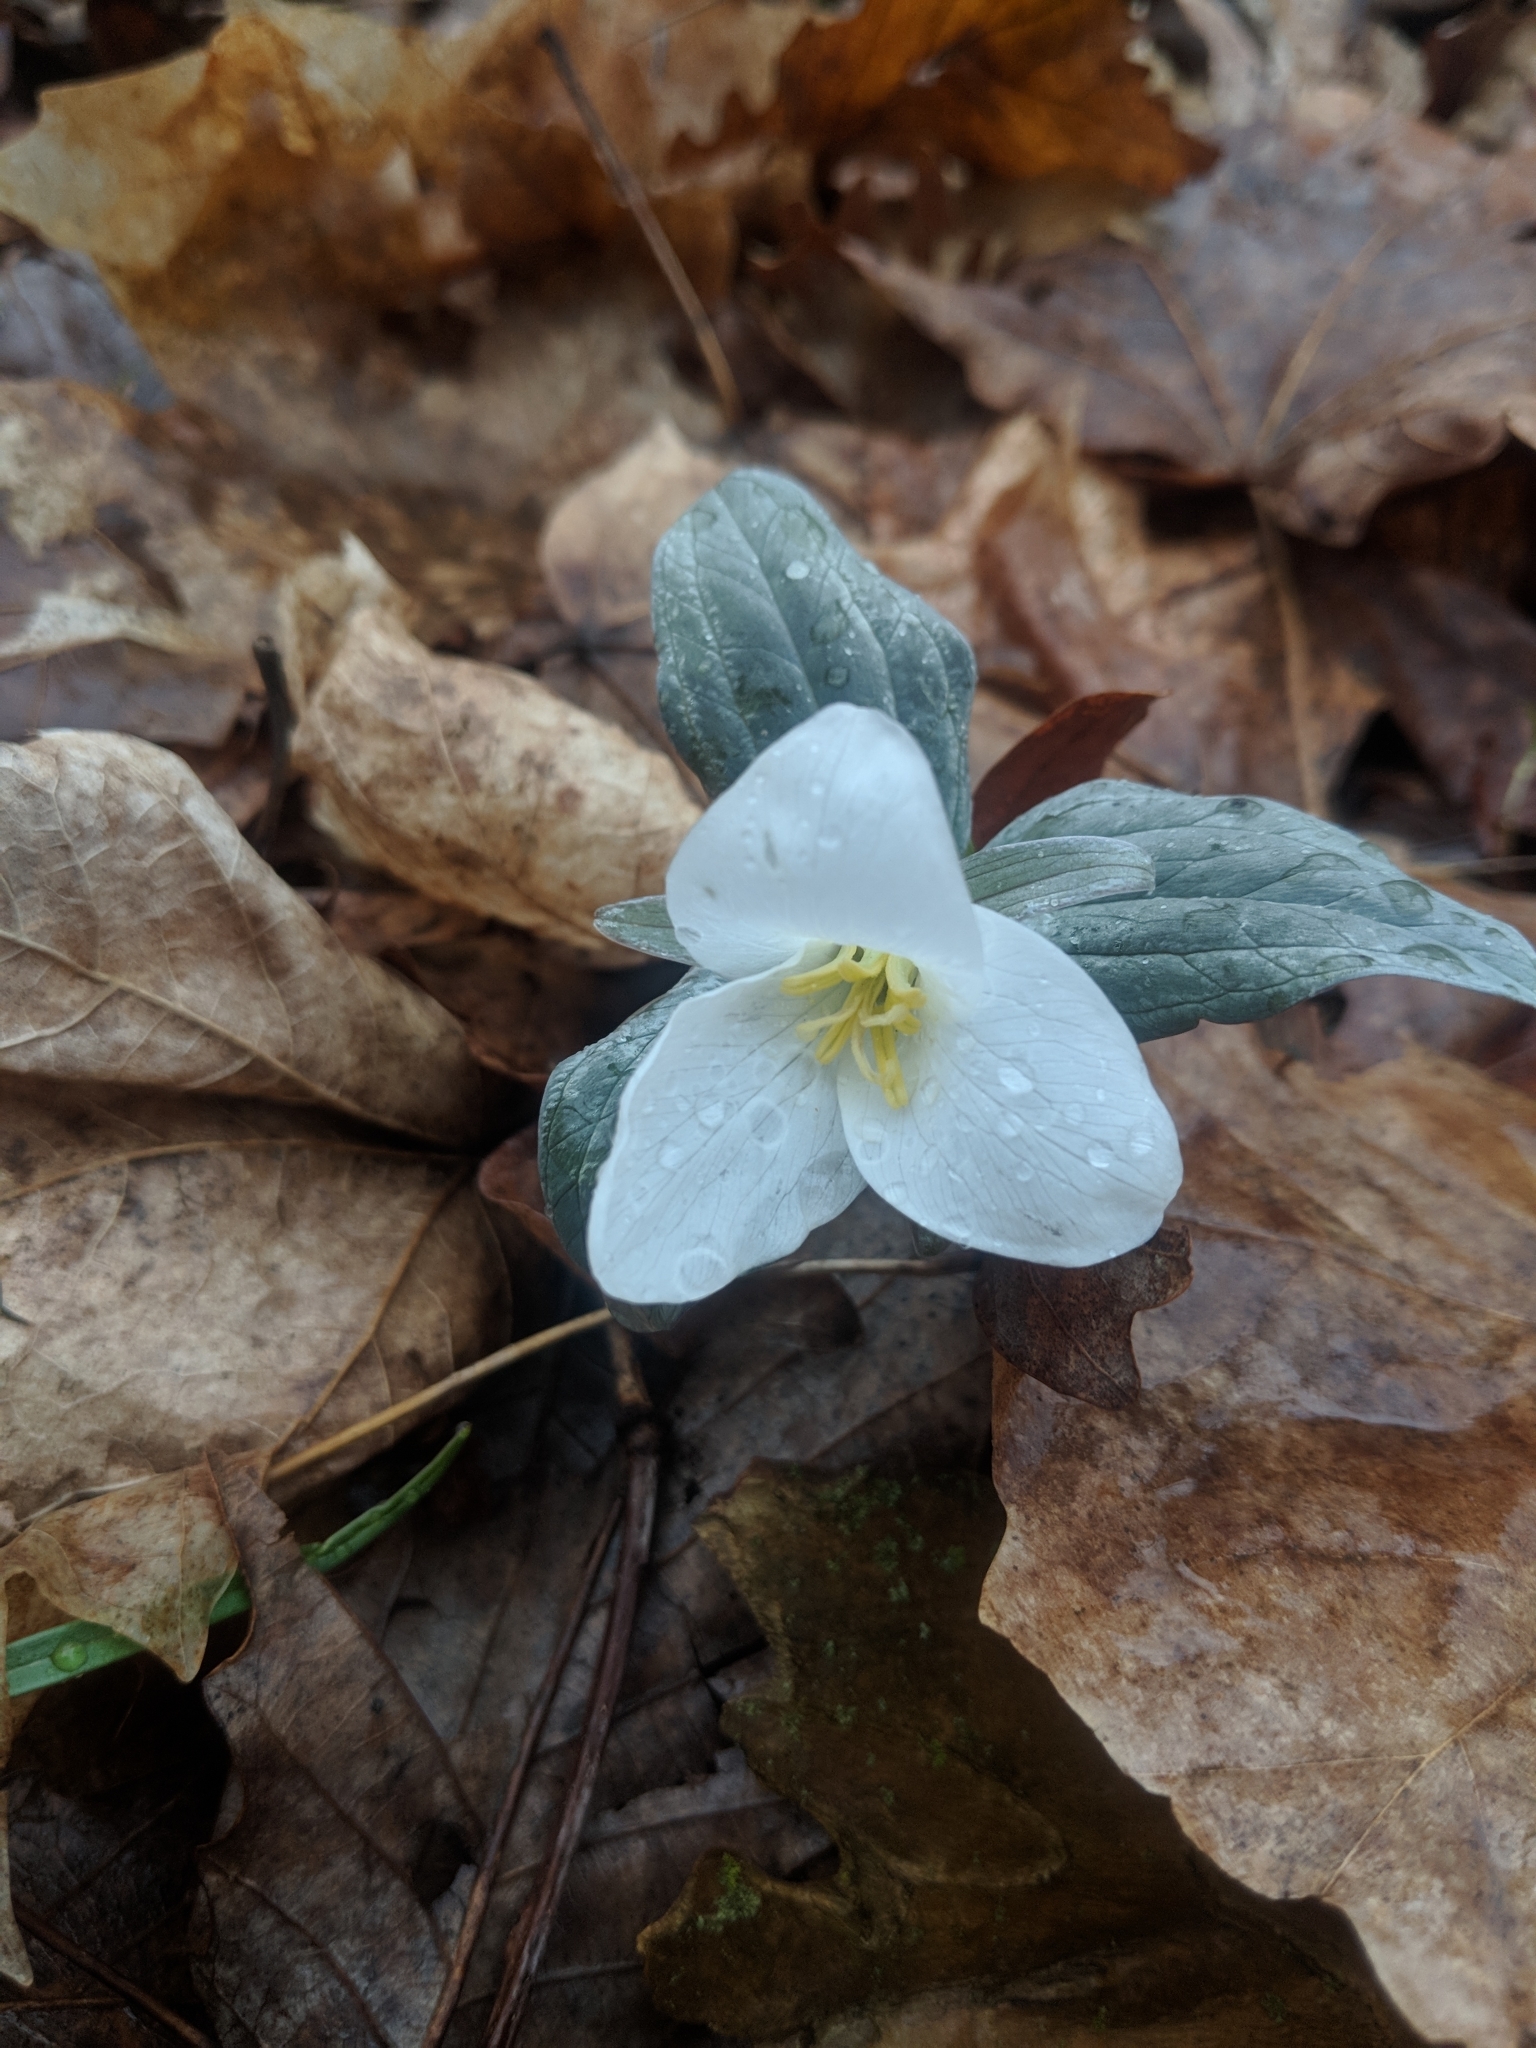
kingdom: Plantae
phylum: Tracheophyta
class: Liliopsida
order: Liliales
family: Melanthiaceae
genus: Trillium
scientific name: Trillium nivale
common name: Dwarf white trillium
